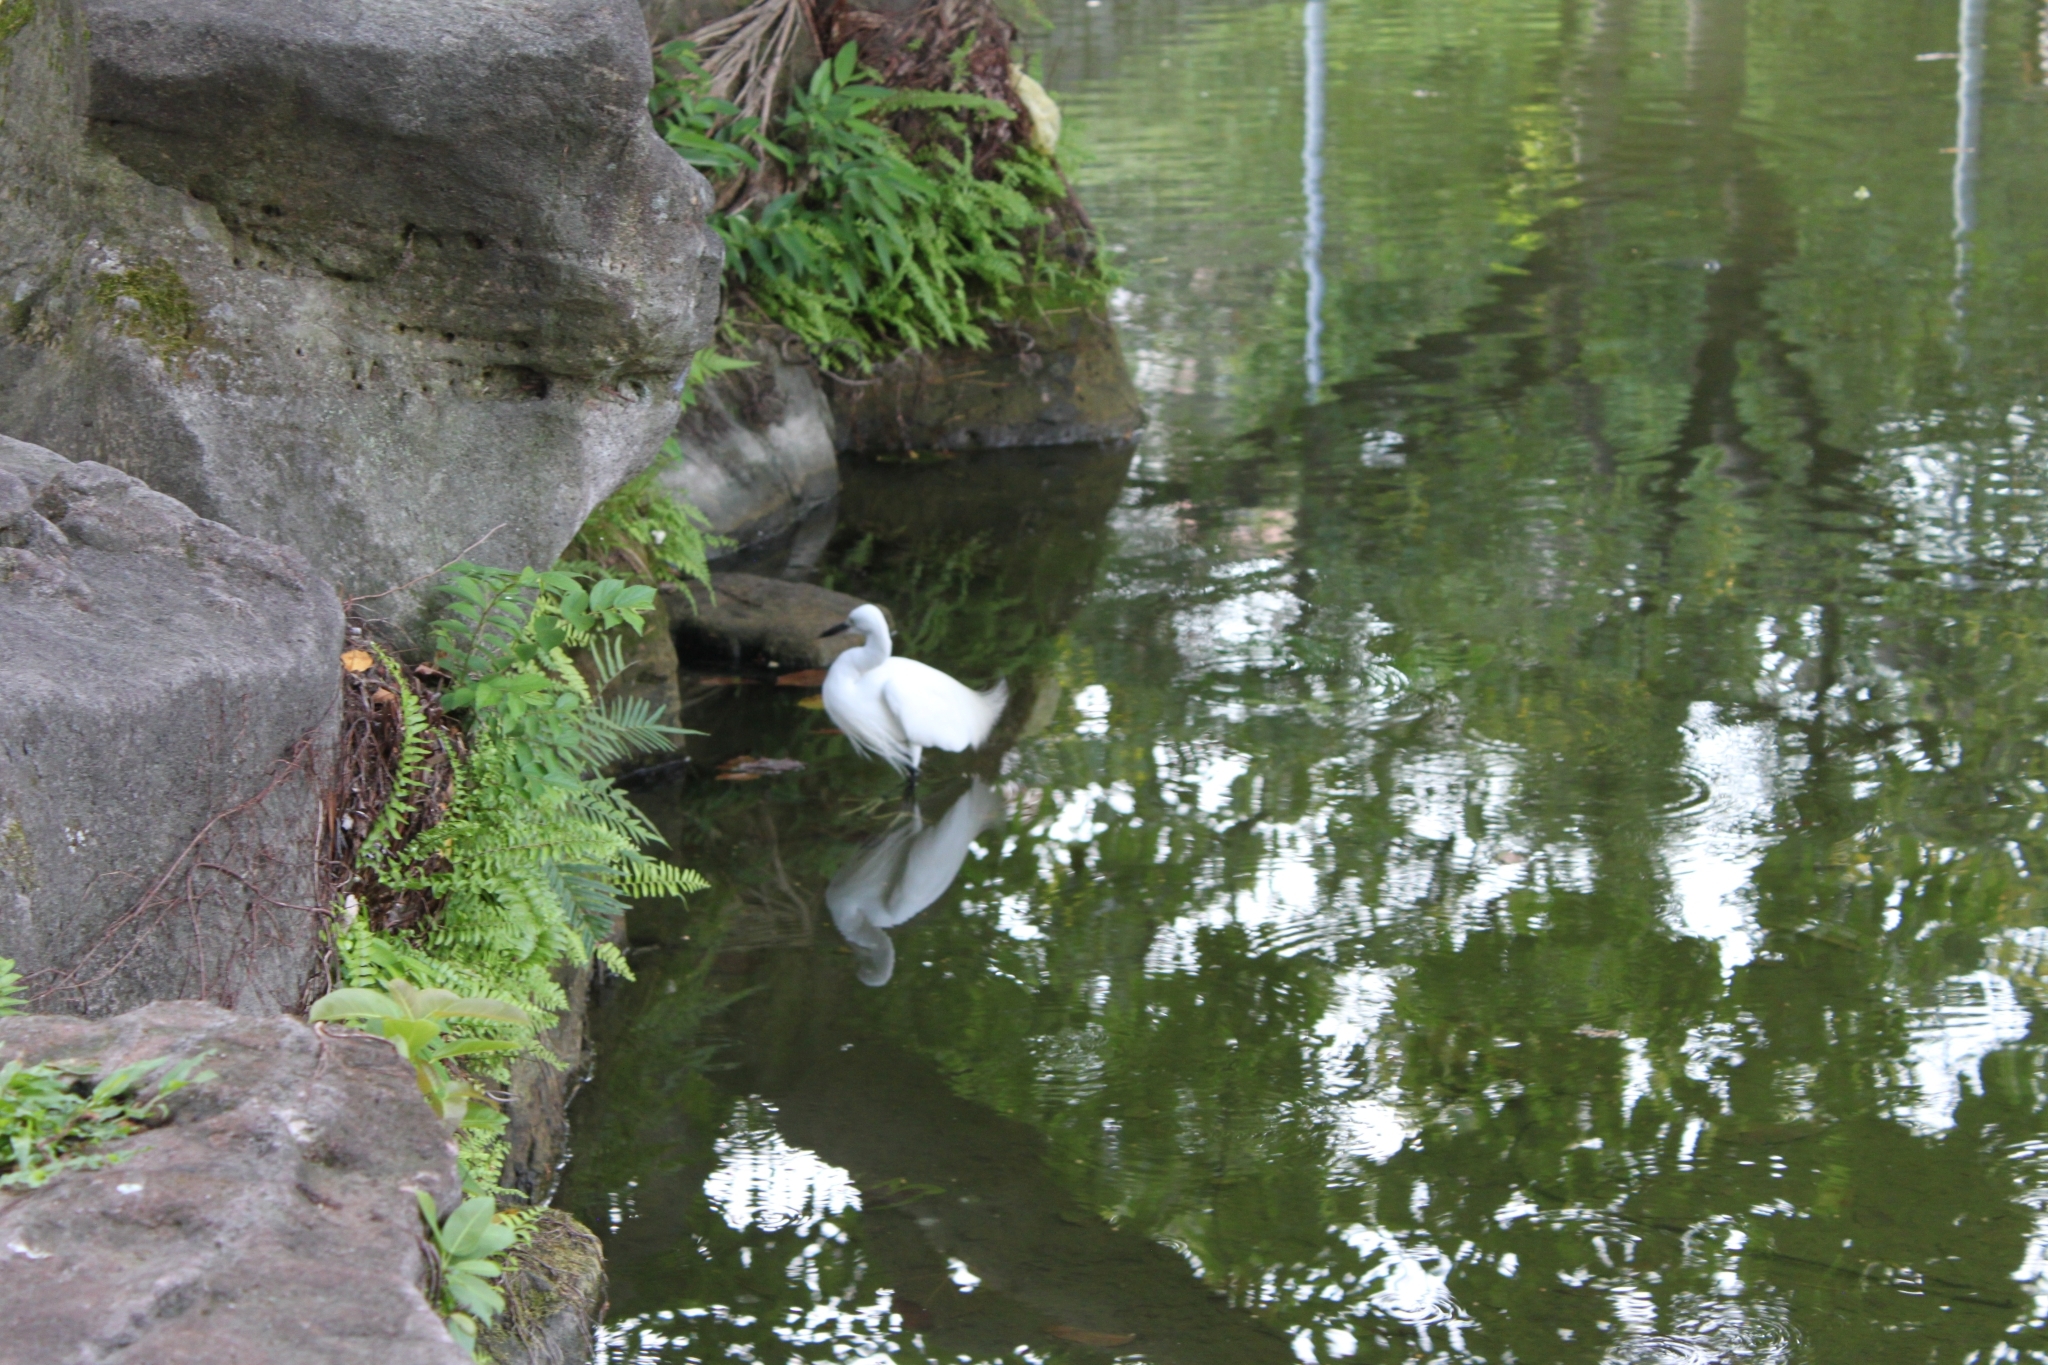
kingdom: Animalia
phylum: Chordata
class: Aves
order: Pelecaniformes
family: Ardeidae
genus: Egretta
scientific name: Egretta garzetta
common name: Little egret
